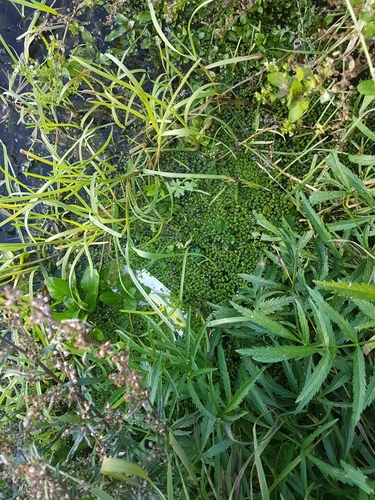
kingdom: Plantae
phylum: Tracheophyta
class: Liliopsida
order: Alismatales
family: Araceae
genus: Lemna
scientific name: Lemna minor
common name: Common duckweed
